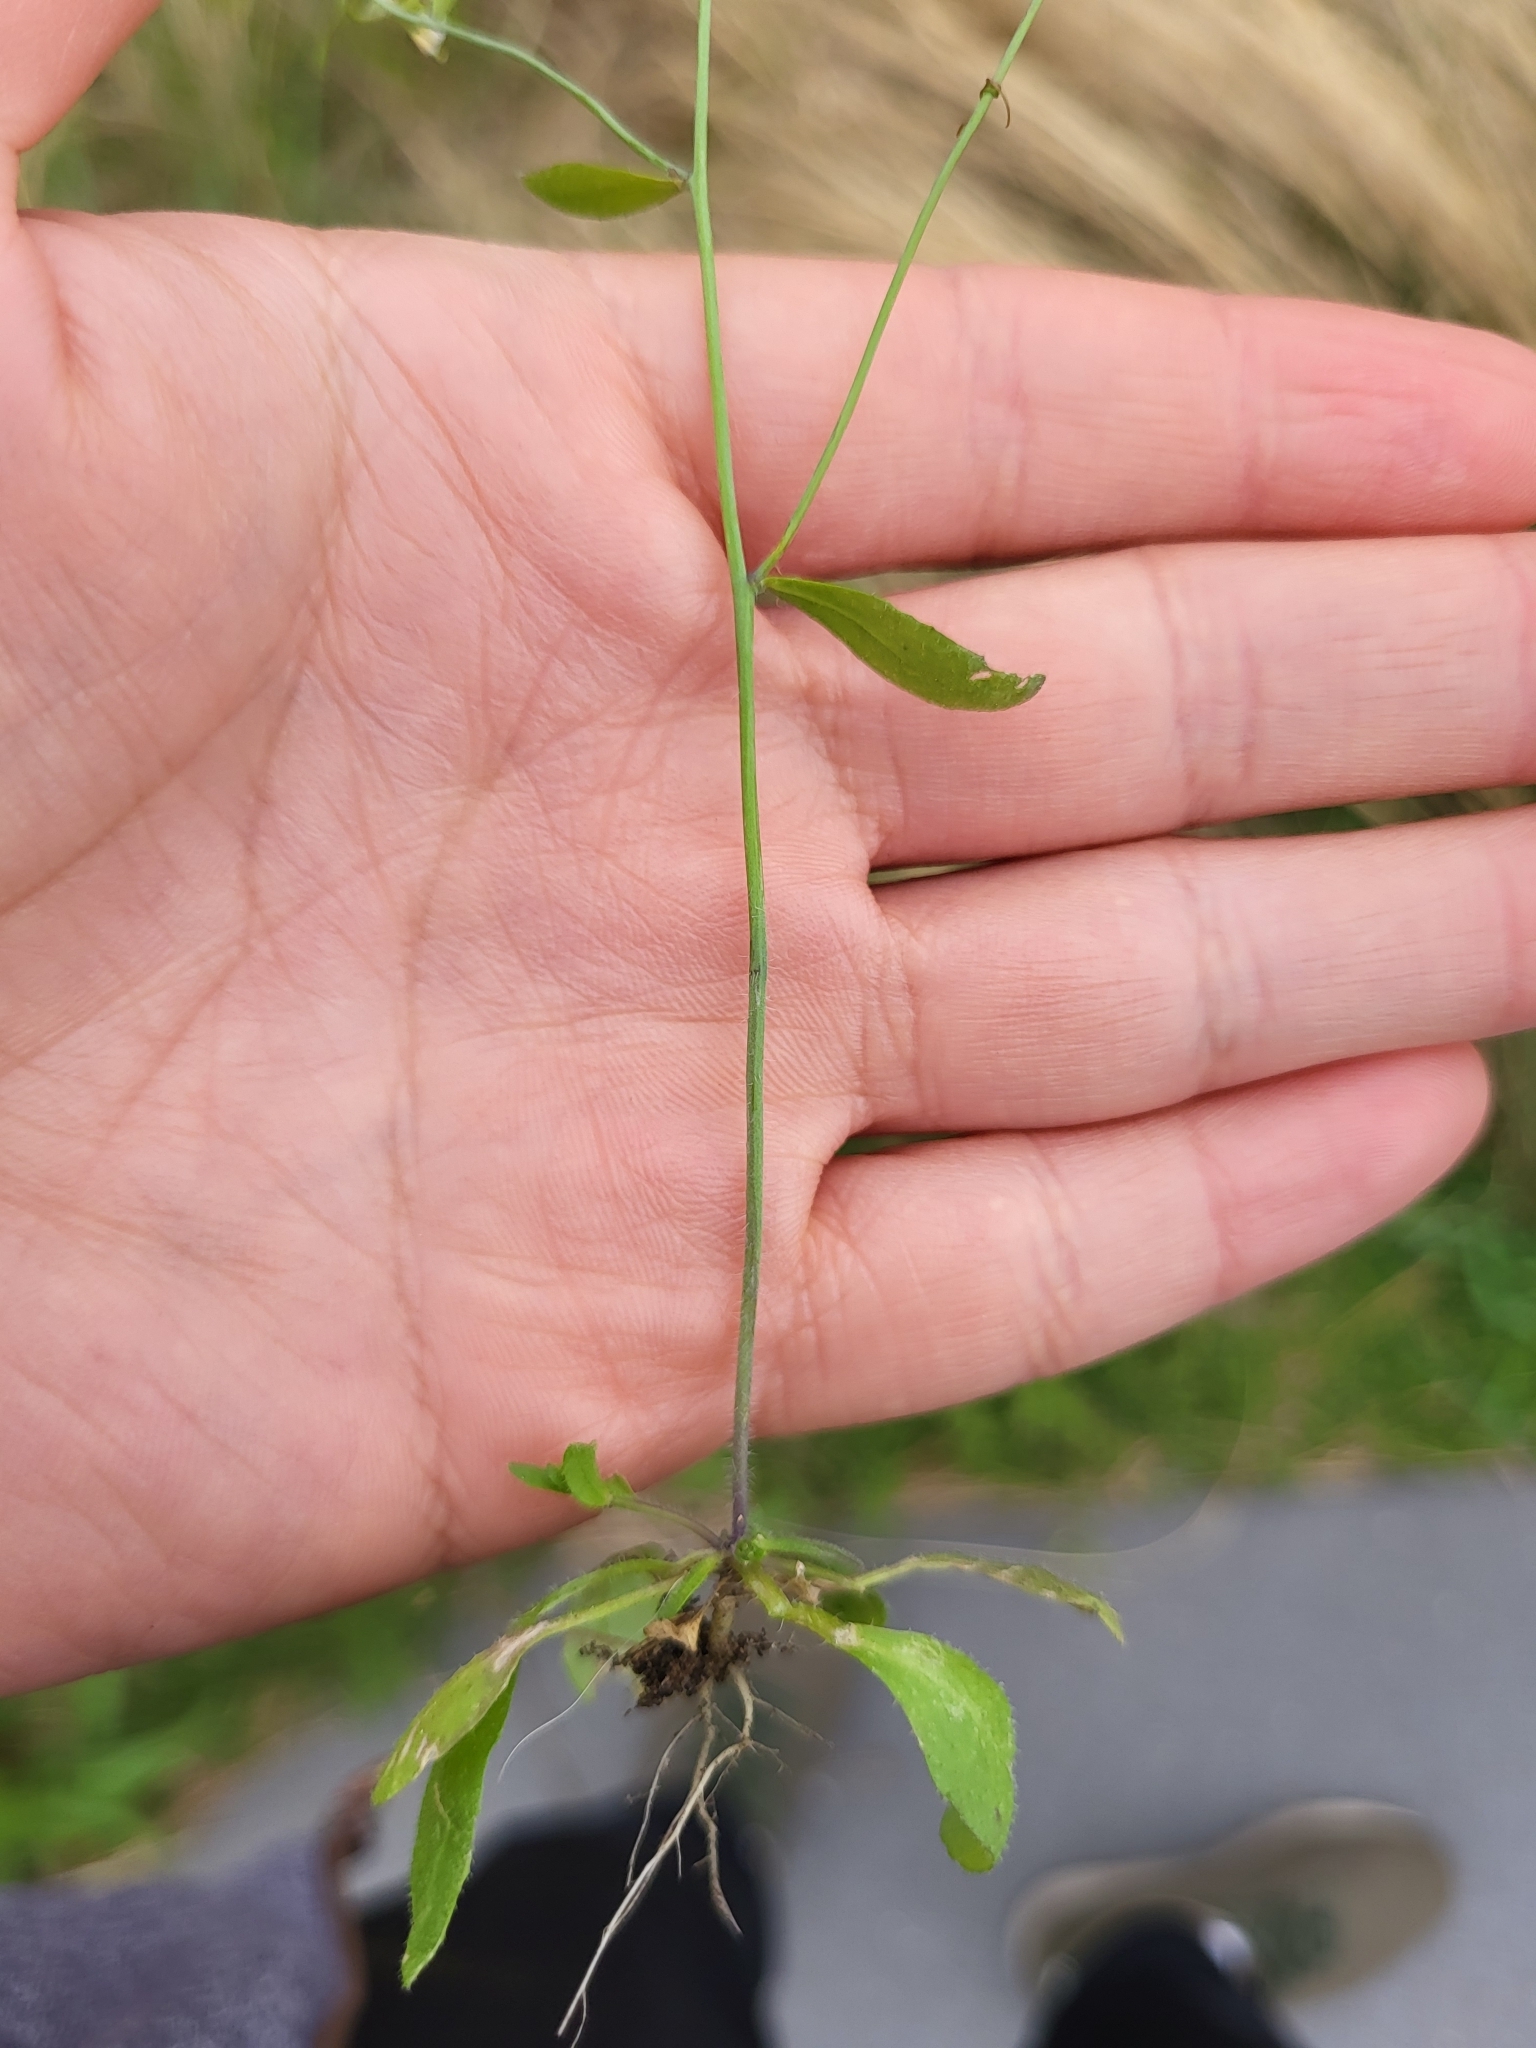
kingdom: Plantae
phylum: Tracheophyta
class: Magnoliopsida
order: Brassicales
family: Brassicaceae
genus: Arabidopsis
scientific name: Arabidopsis thaliana
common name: Thale cress
